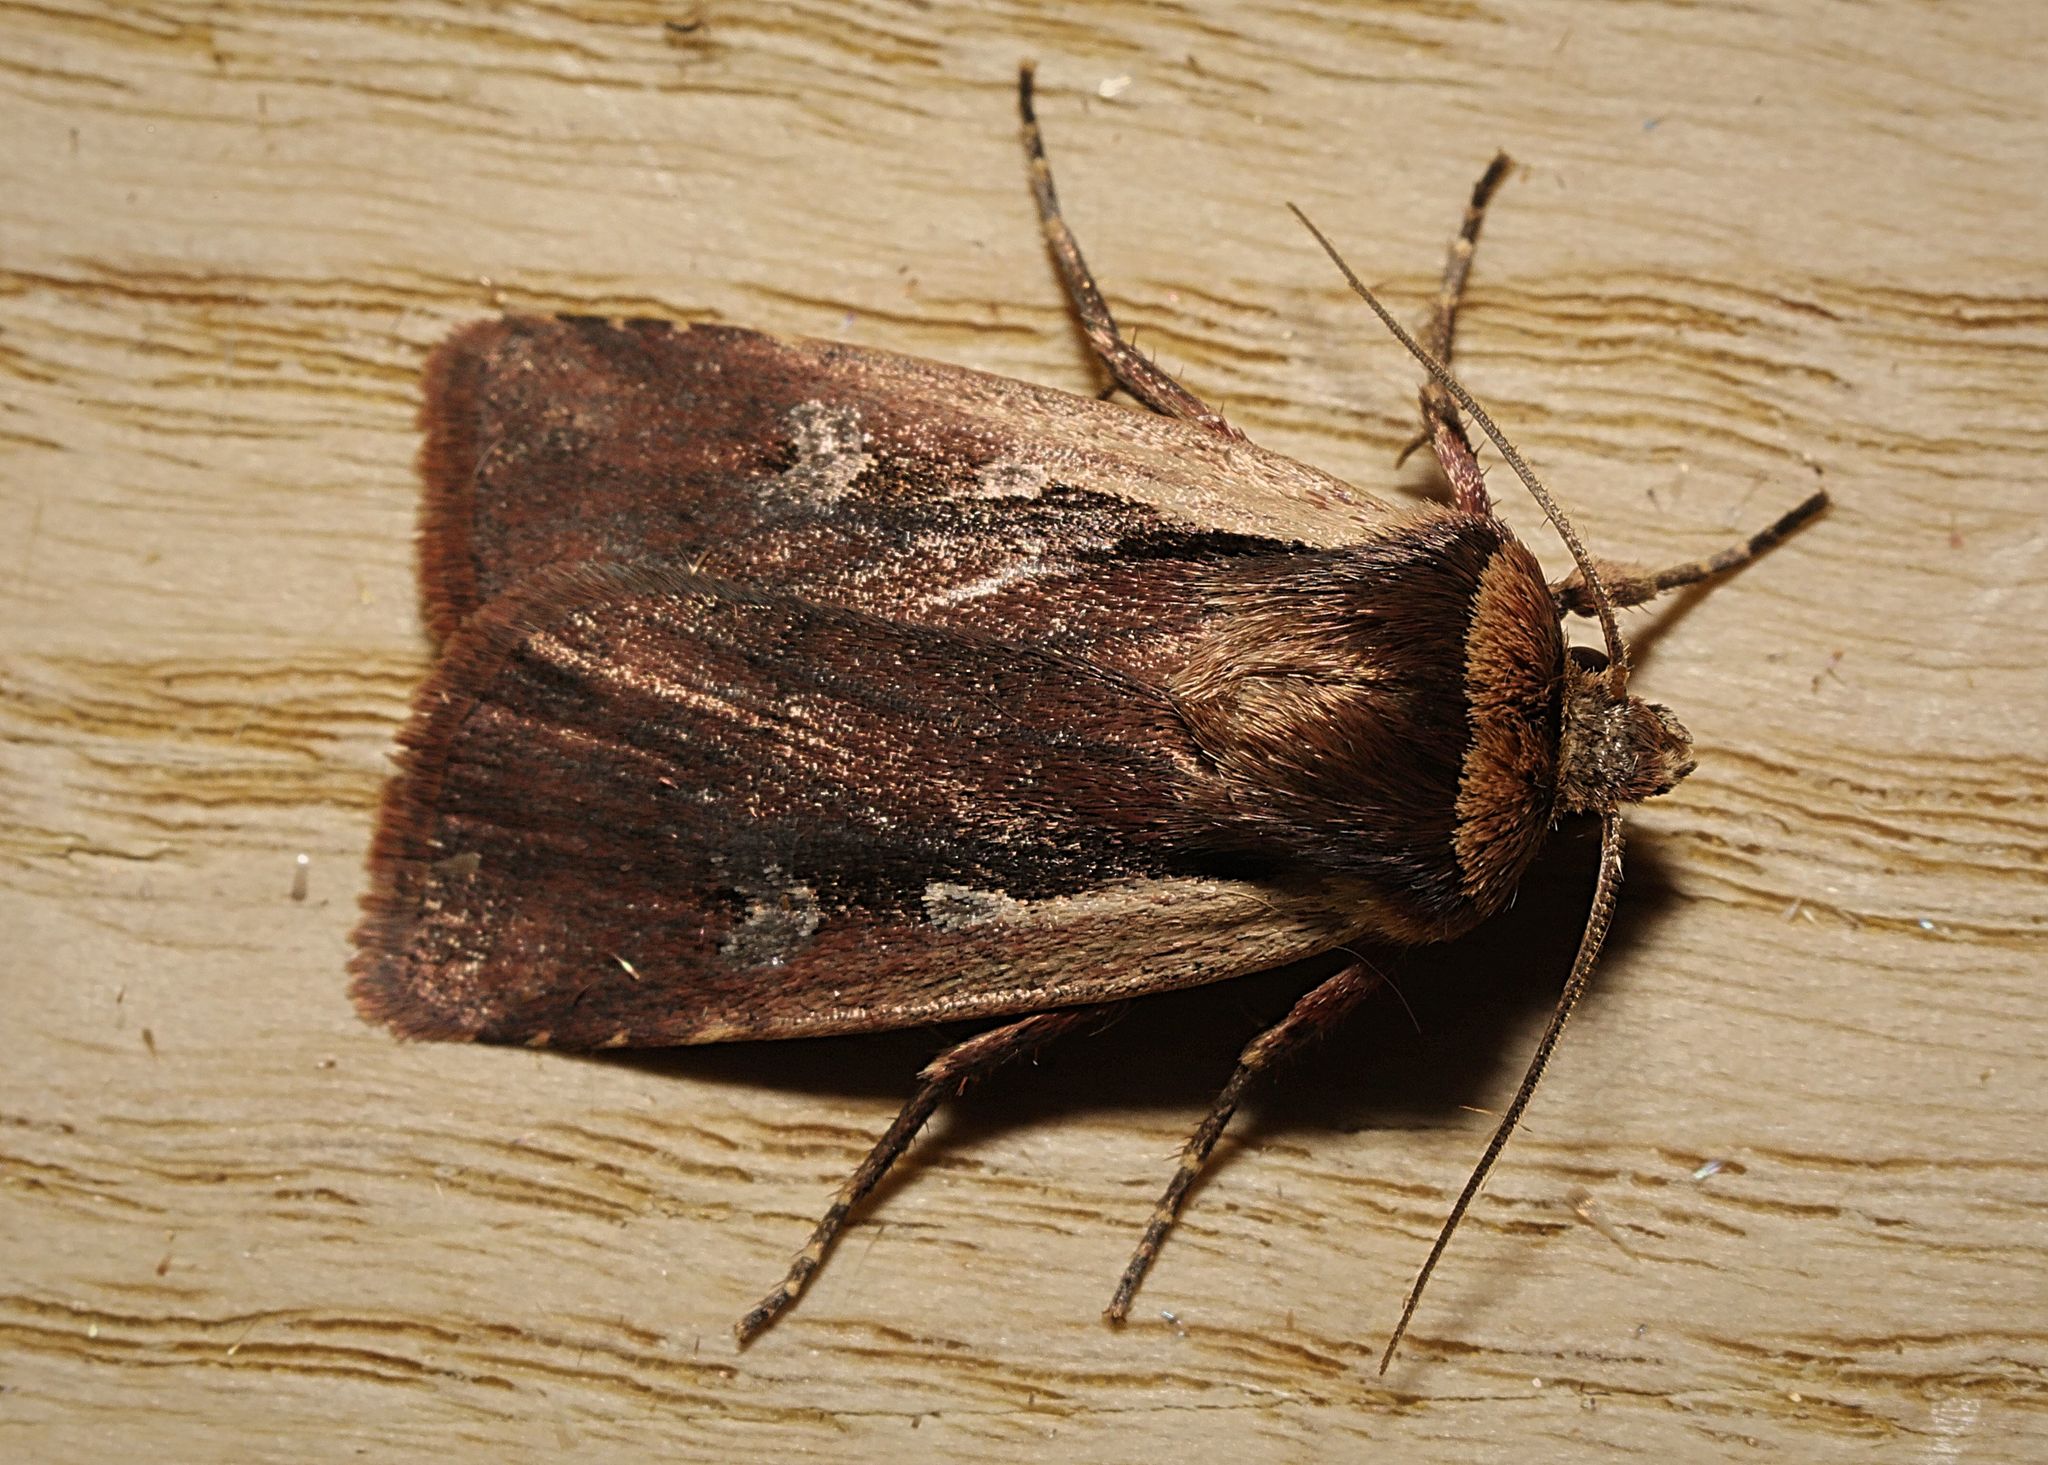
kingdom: Animalia
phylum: Arthropoda
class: Insecta
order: Lepidoptera
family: Noctuidae
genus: Ochropleura
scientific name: Ochropleura plecta
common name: Flame shoulder
